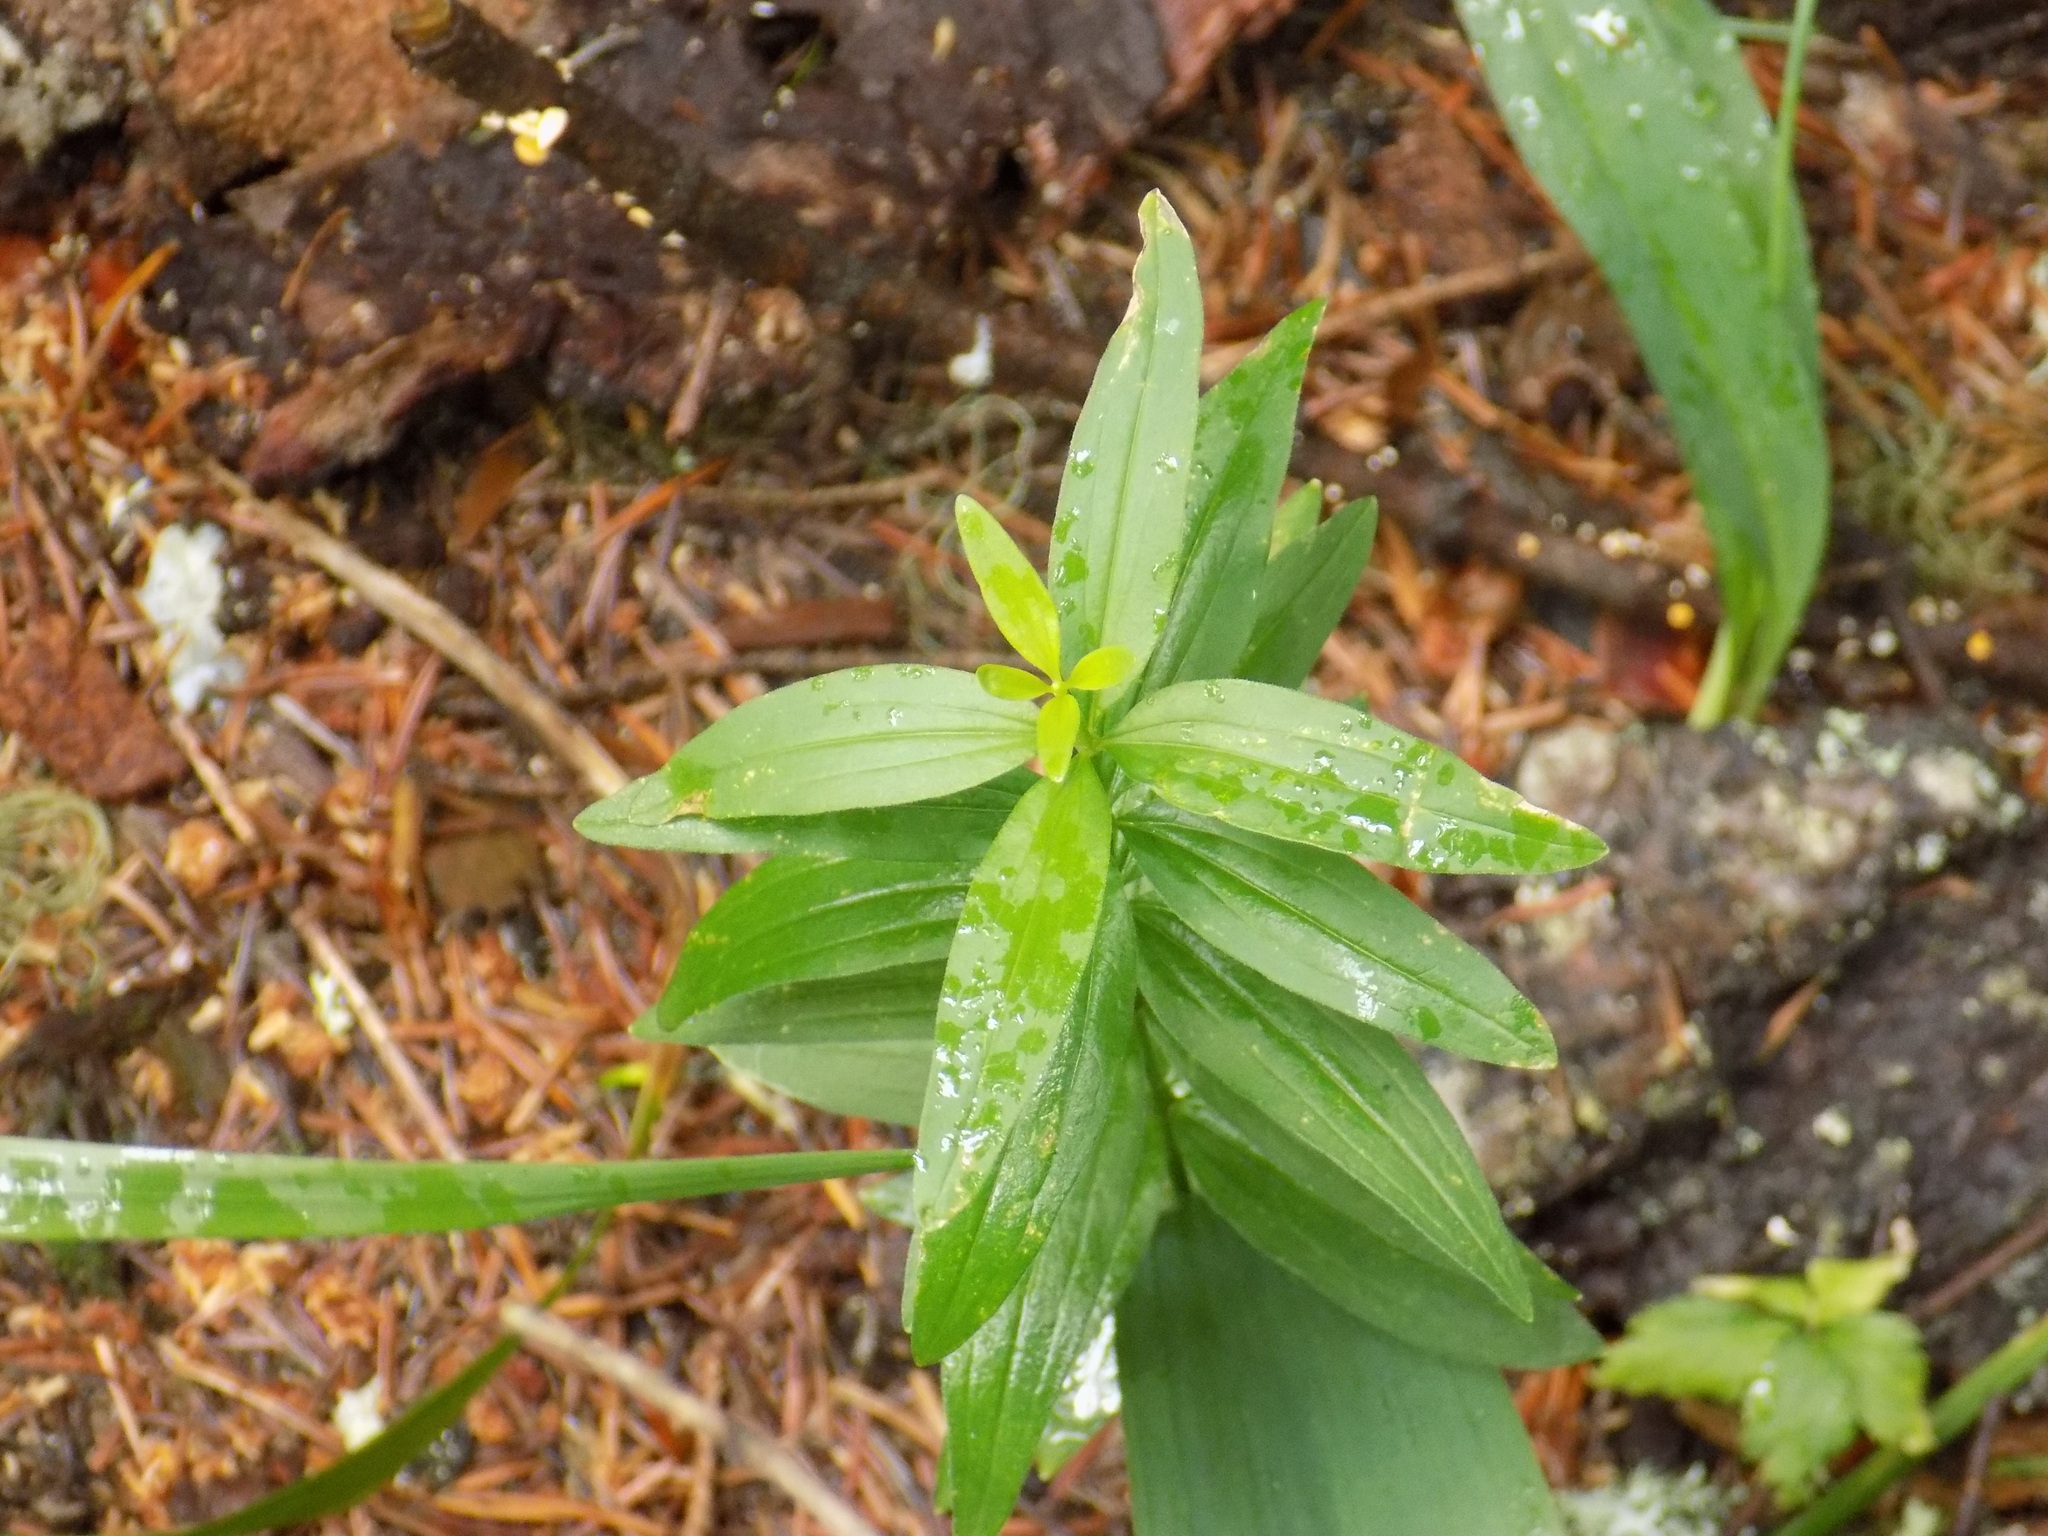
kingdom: Plantae
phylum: Tracheophyta
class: Liliopsida
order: Liliales
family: Liliaceae
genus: Lilium
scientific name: Lilium martagon
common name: Martagon lily
